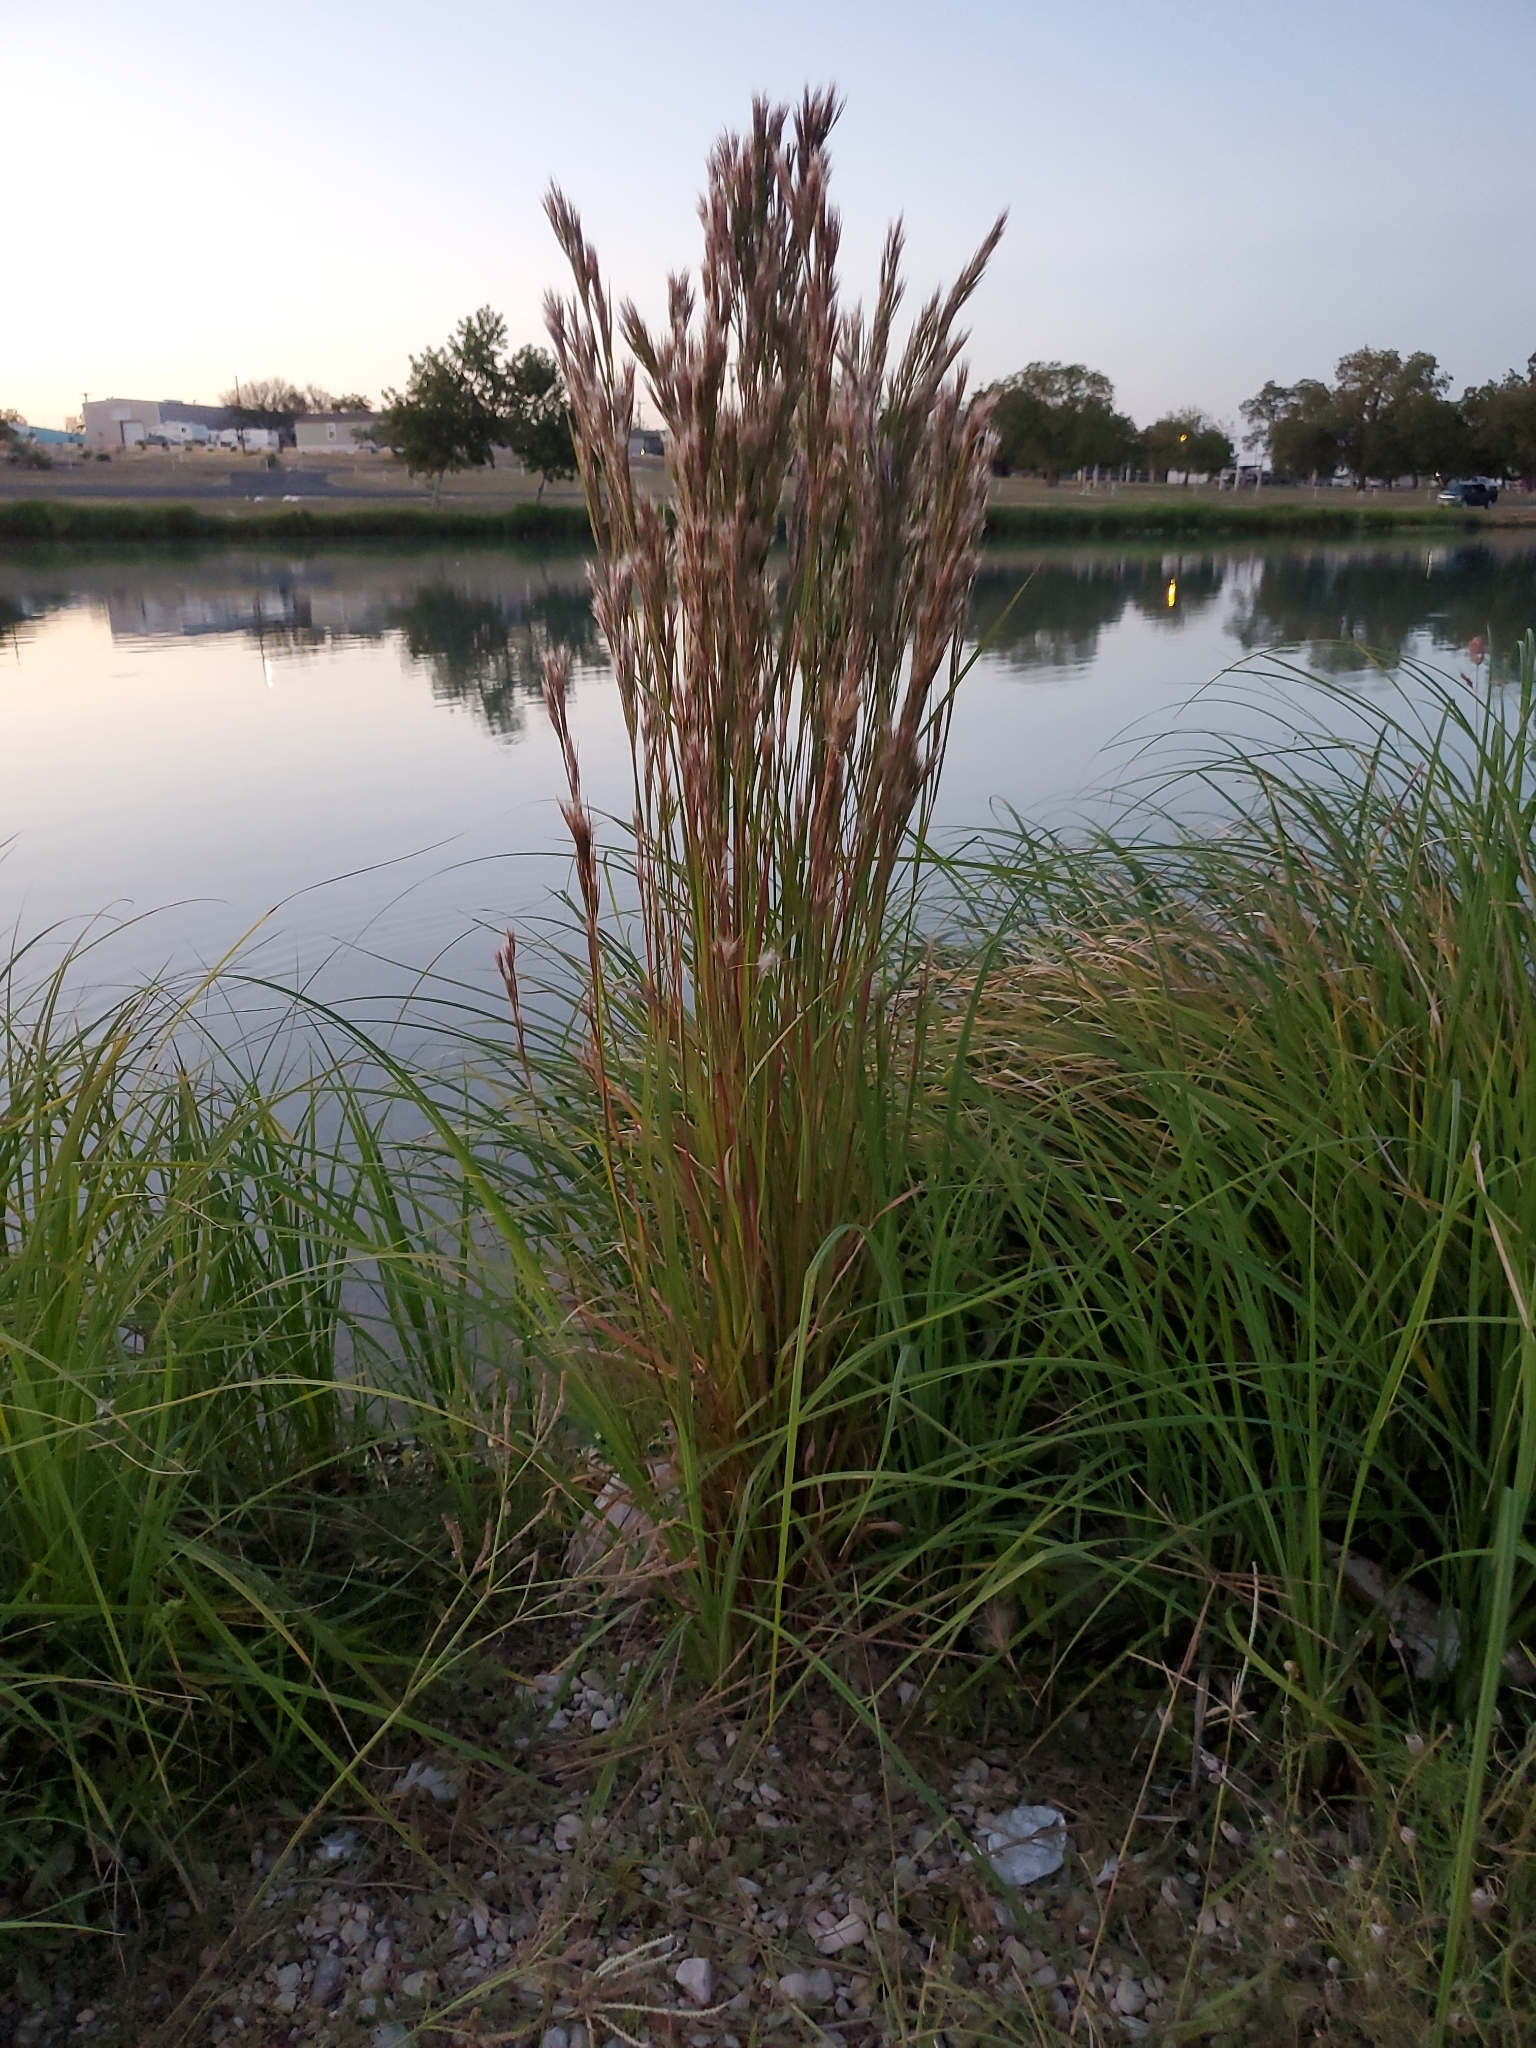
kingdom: Plantae
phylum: Tracheophyta
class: Liliopsida
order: Poales
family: Poaceae
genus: Andropogon
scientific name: Andropogon tenuispatheus
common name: Bushy bluestem
